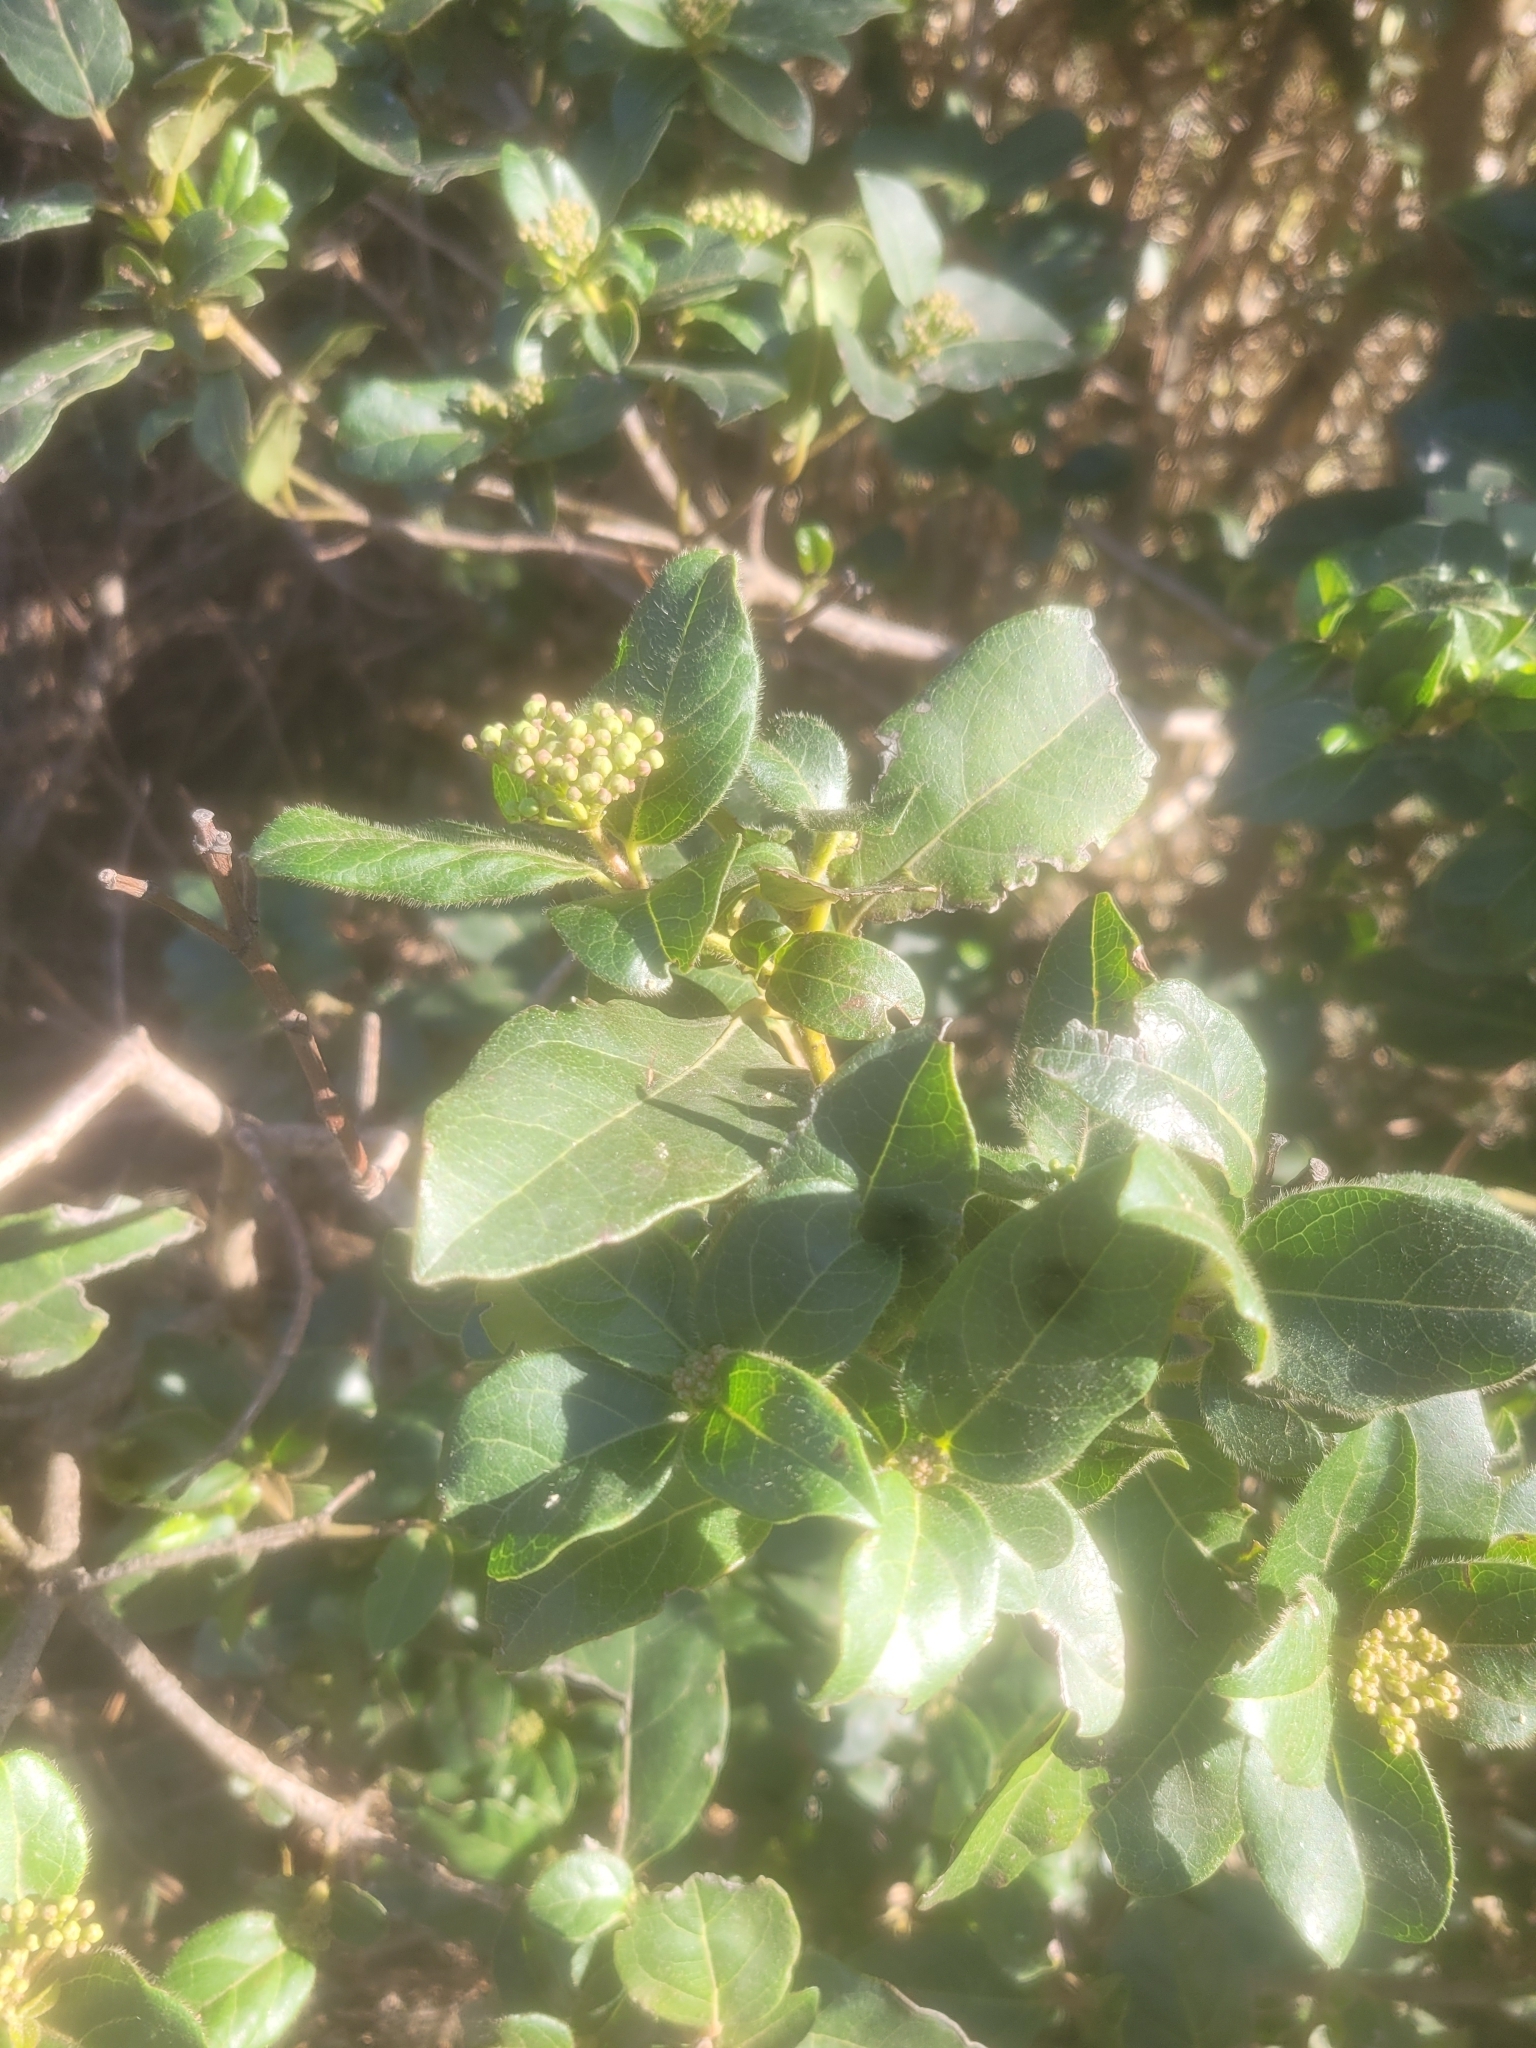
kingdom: Plantae
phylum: Tracheophyta
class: Magnoliopsida
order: Dipsacales
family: Viburnaceae
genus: Viburnum
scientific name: Viburnum tinus
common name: Laurustinus
